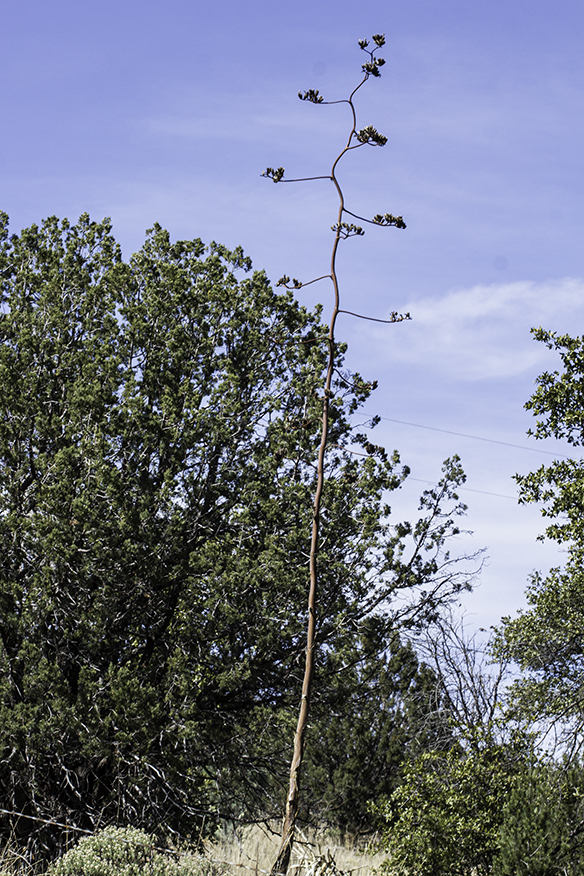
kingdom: Plantae
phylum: Tracheophyta
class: Liliopsida
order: Asparagales
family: Asparagaceae
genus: Agave
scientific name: Agave palmeri
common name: Palmer agave
